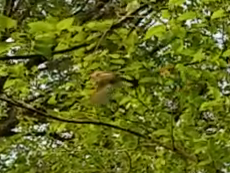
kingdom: Animalia
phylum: Chordata
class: Aves
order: Passeriformes
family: Parulidae
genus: Setophaga
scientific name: Setophaga ruticilla
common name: American redstart
